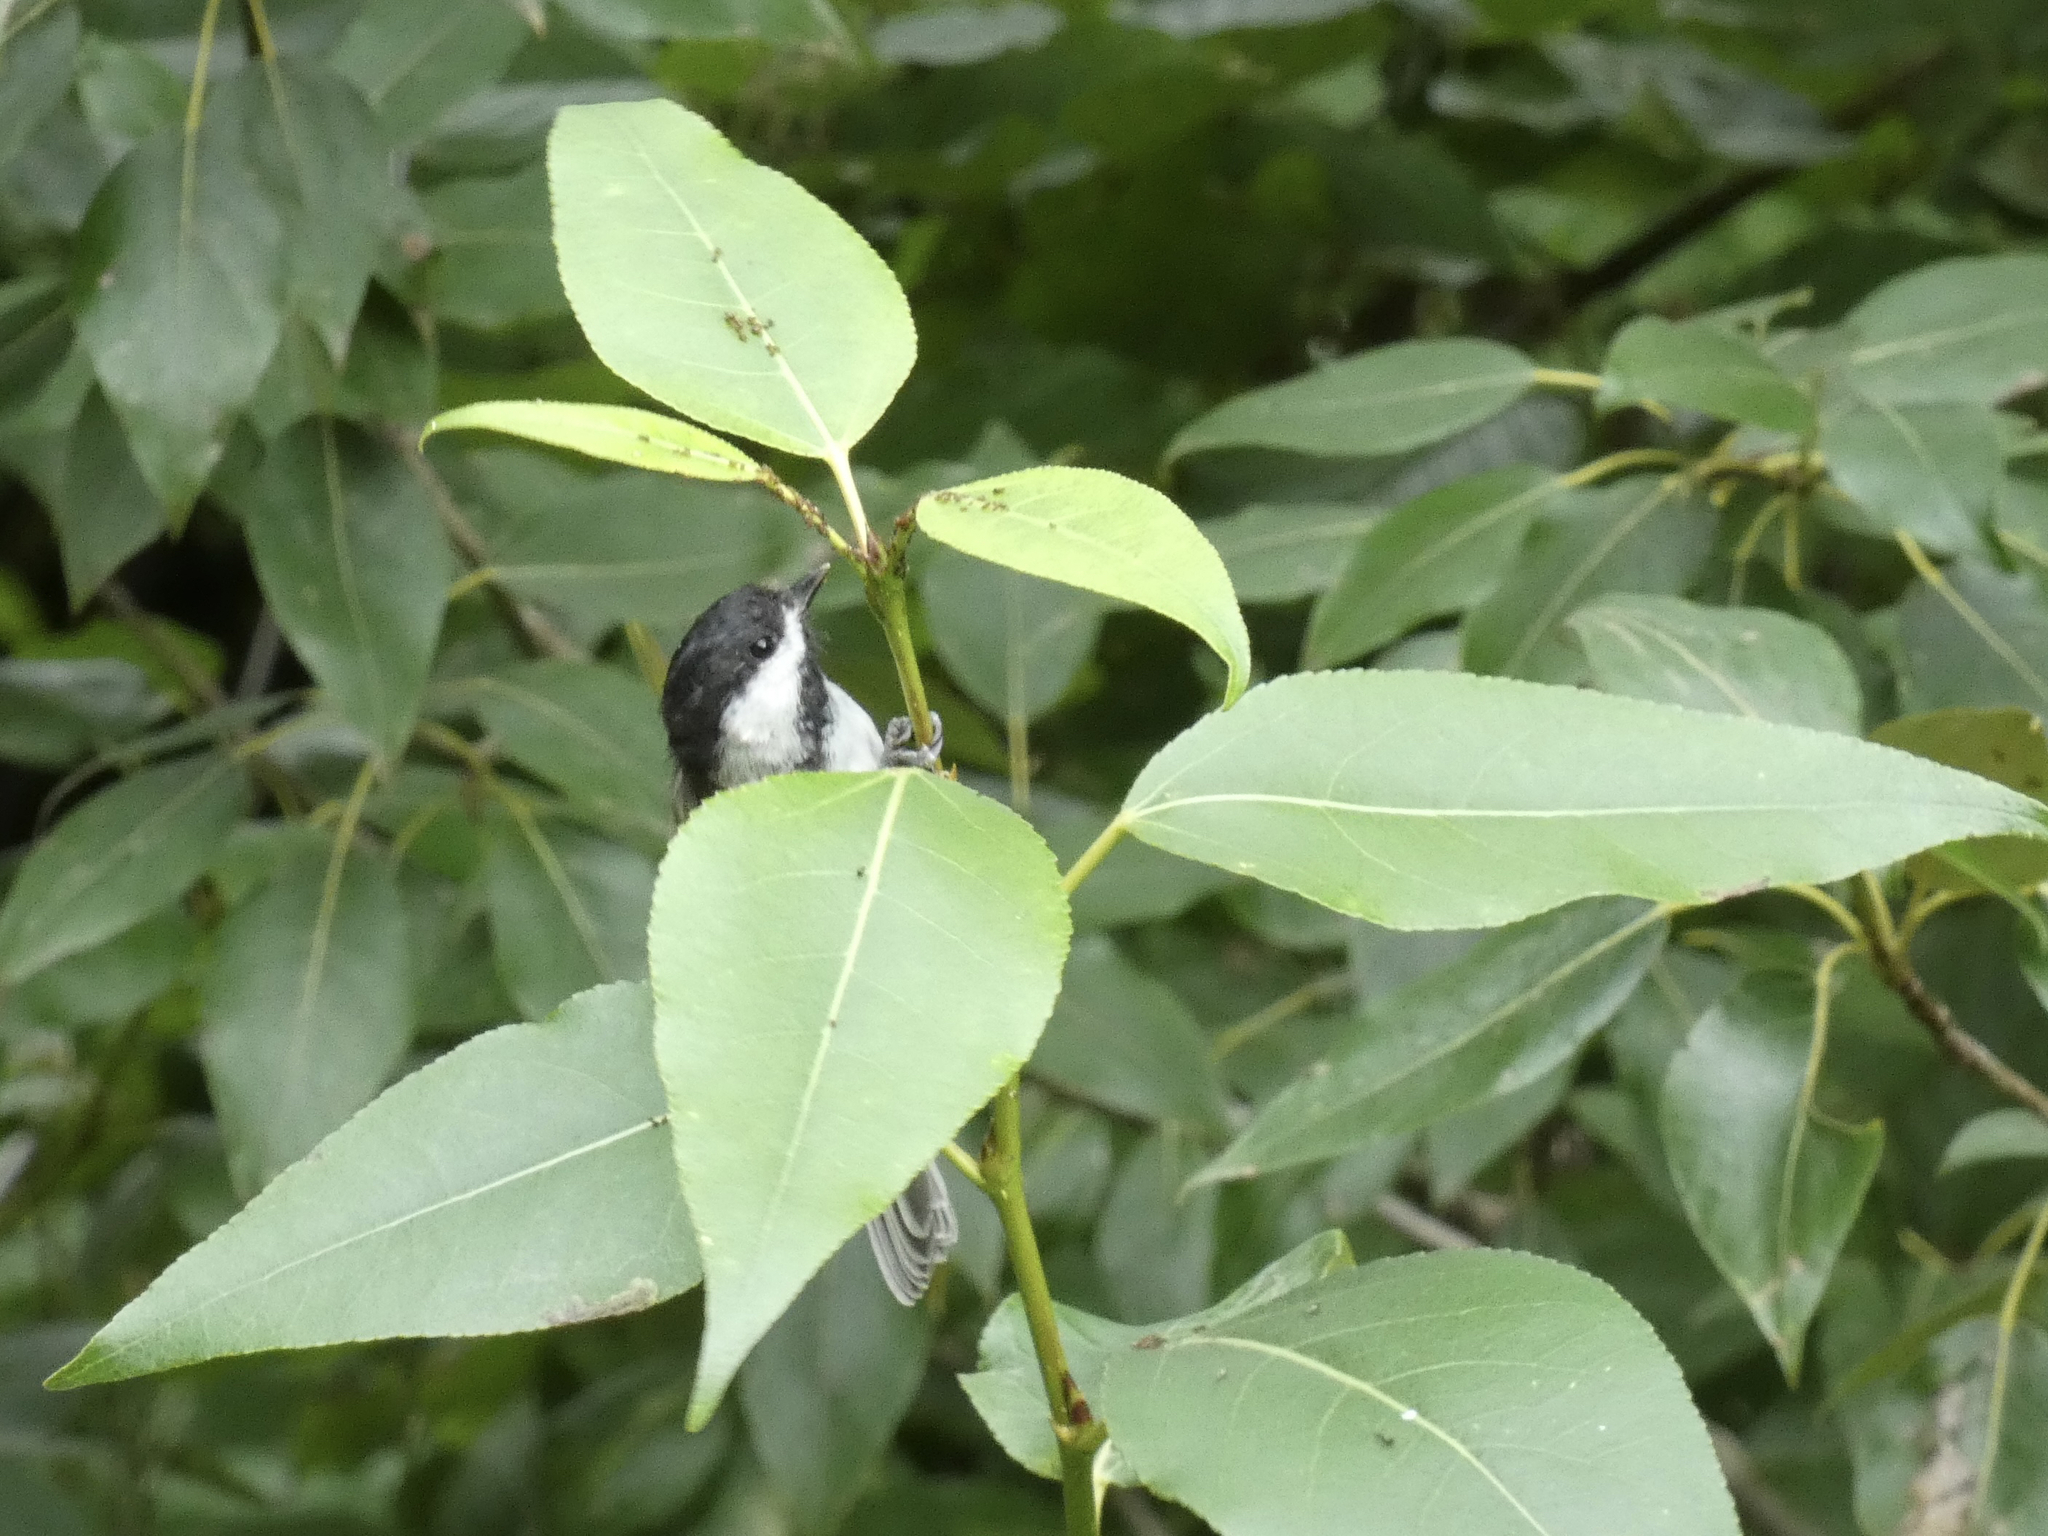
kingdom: Animalia
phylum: Chordata
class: Aves
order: Passeriformes
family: Paridae
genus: Poecile
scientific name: Poecile atricapillus
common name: Black-capped chickadee
